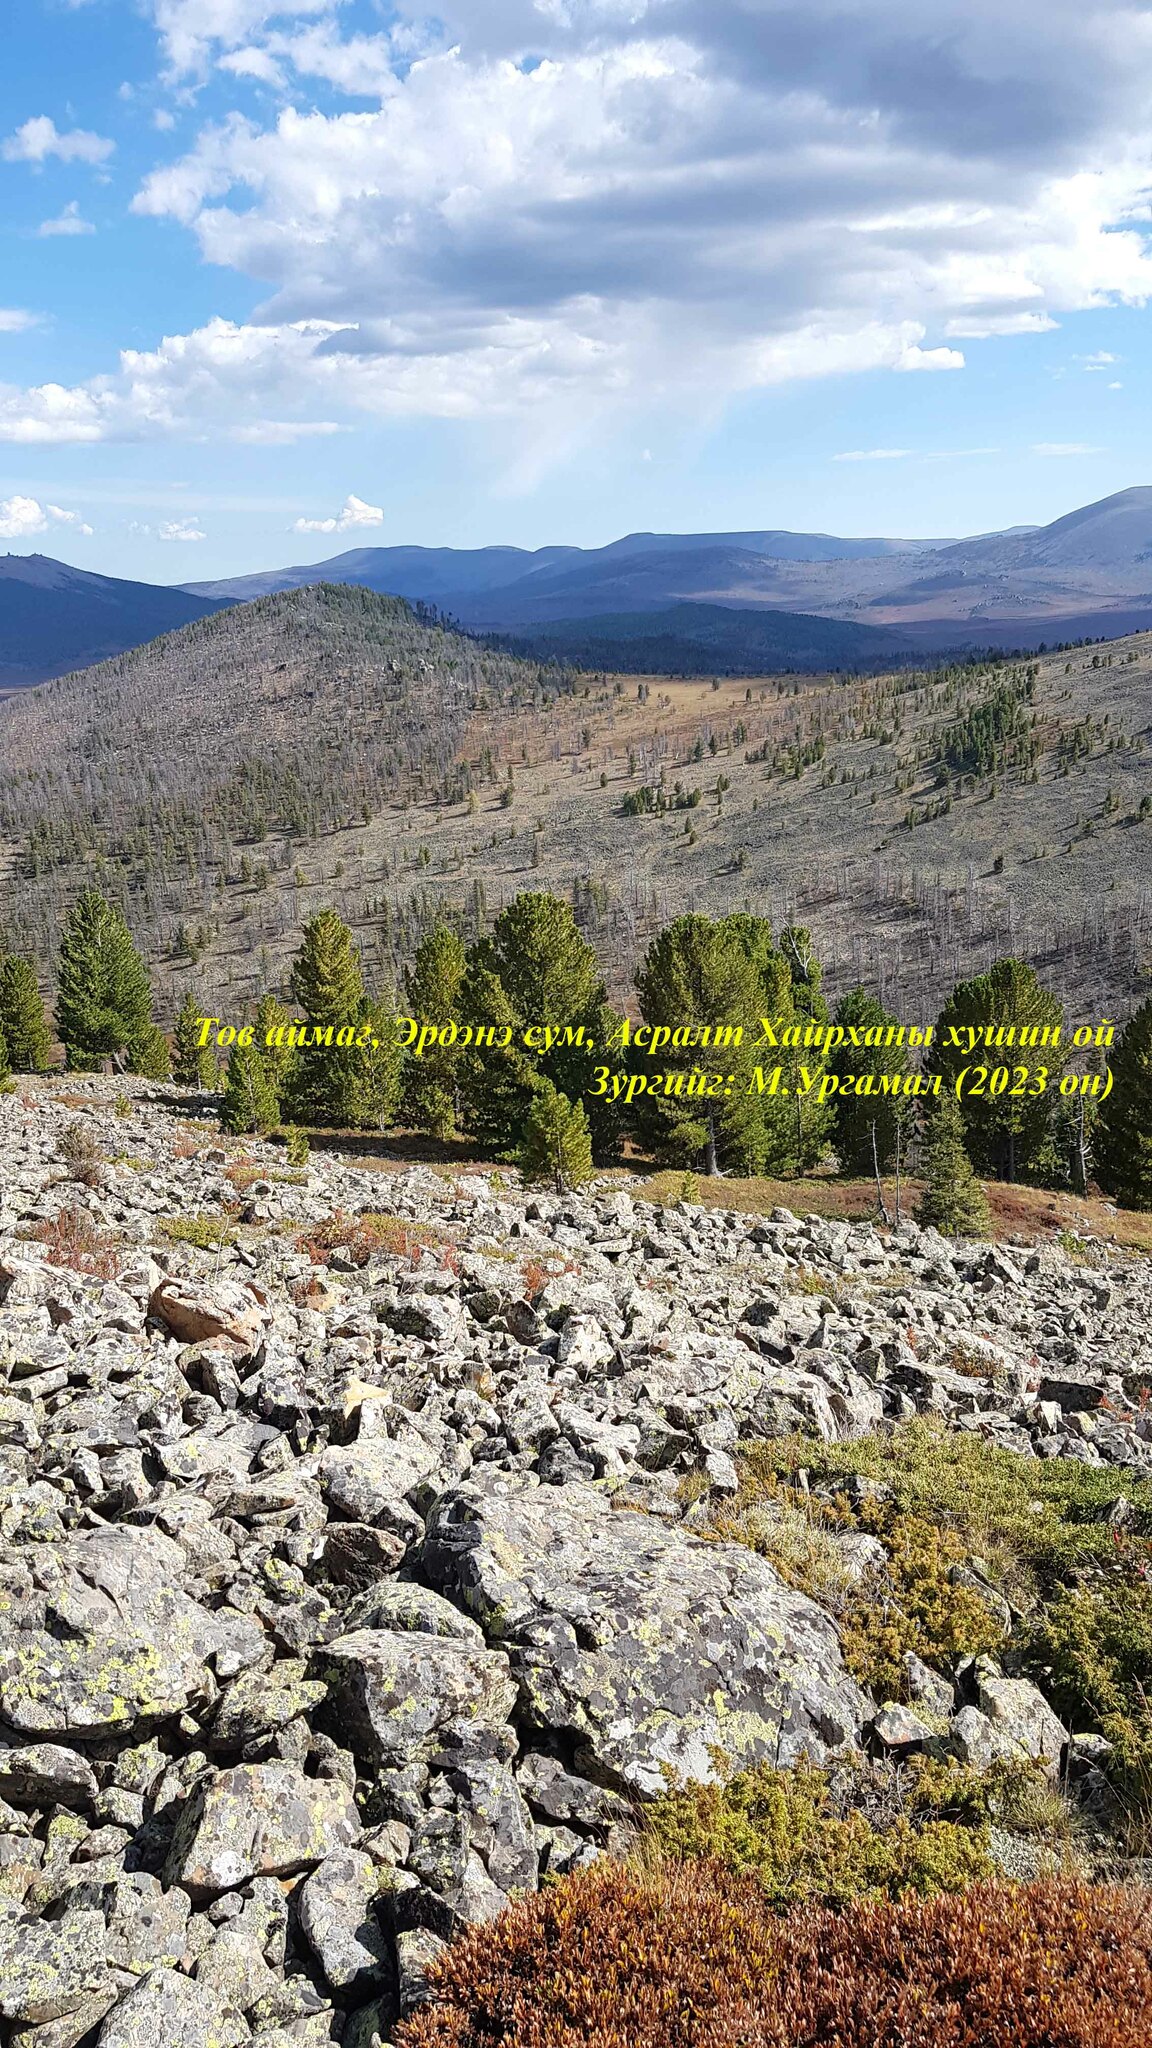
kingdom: Plantae
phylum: Tracheophyta
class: Pinopsida
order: Pinales
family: Cupressaceae
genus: Juniperus
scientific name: Juniperus communis
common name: Common juniper
